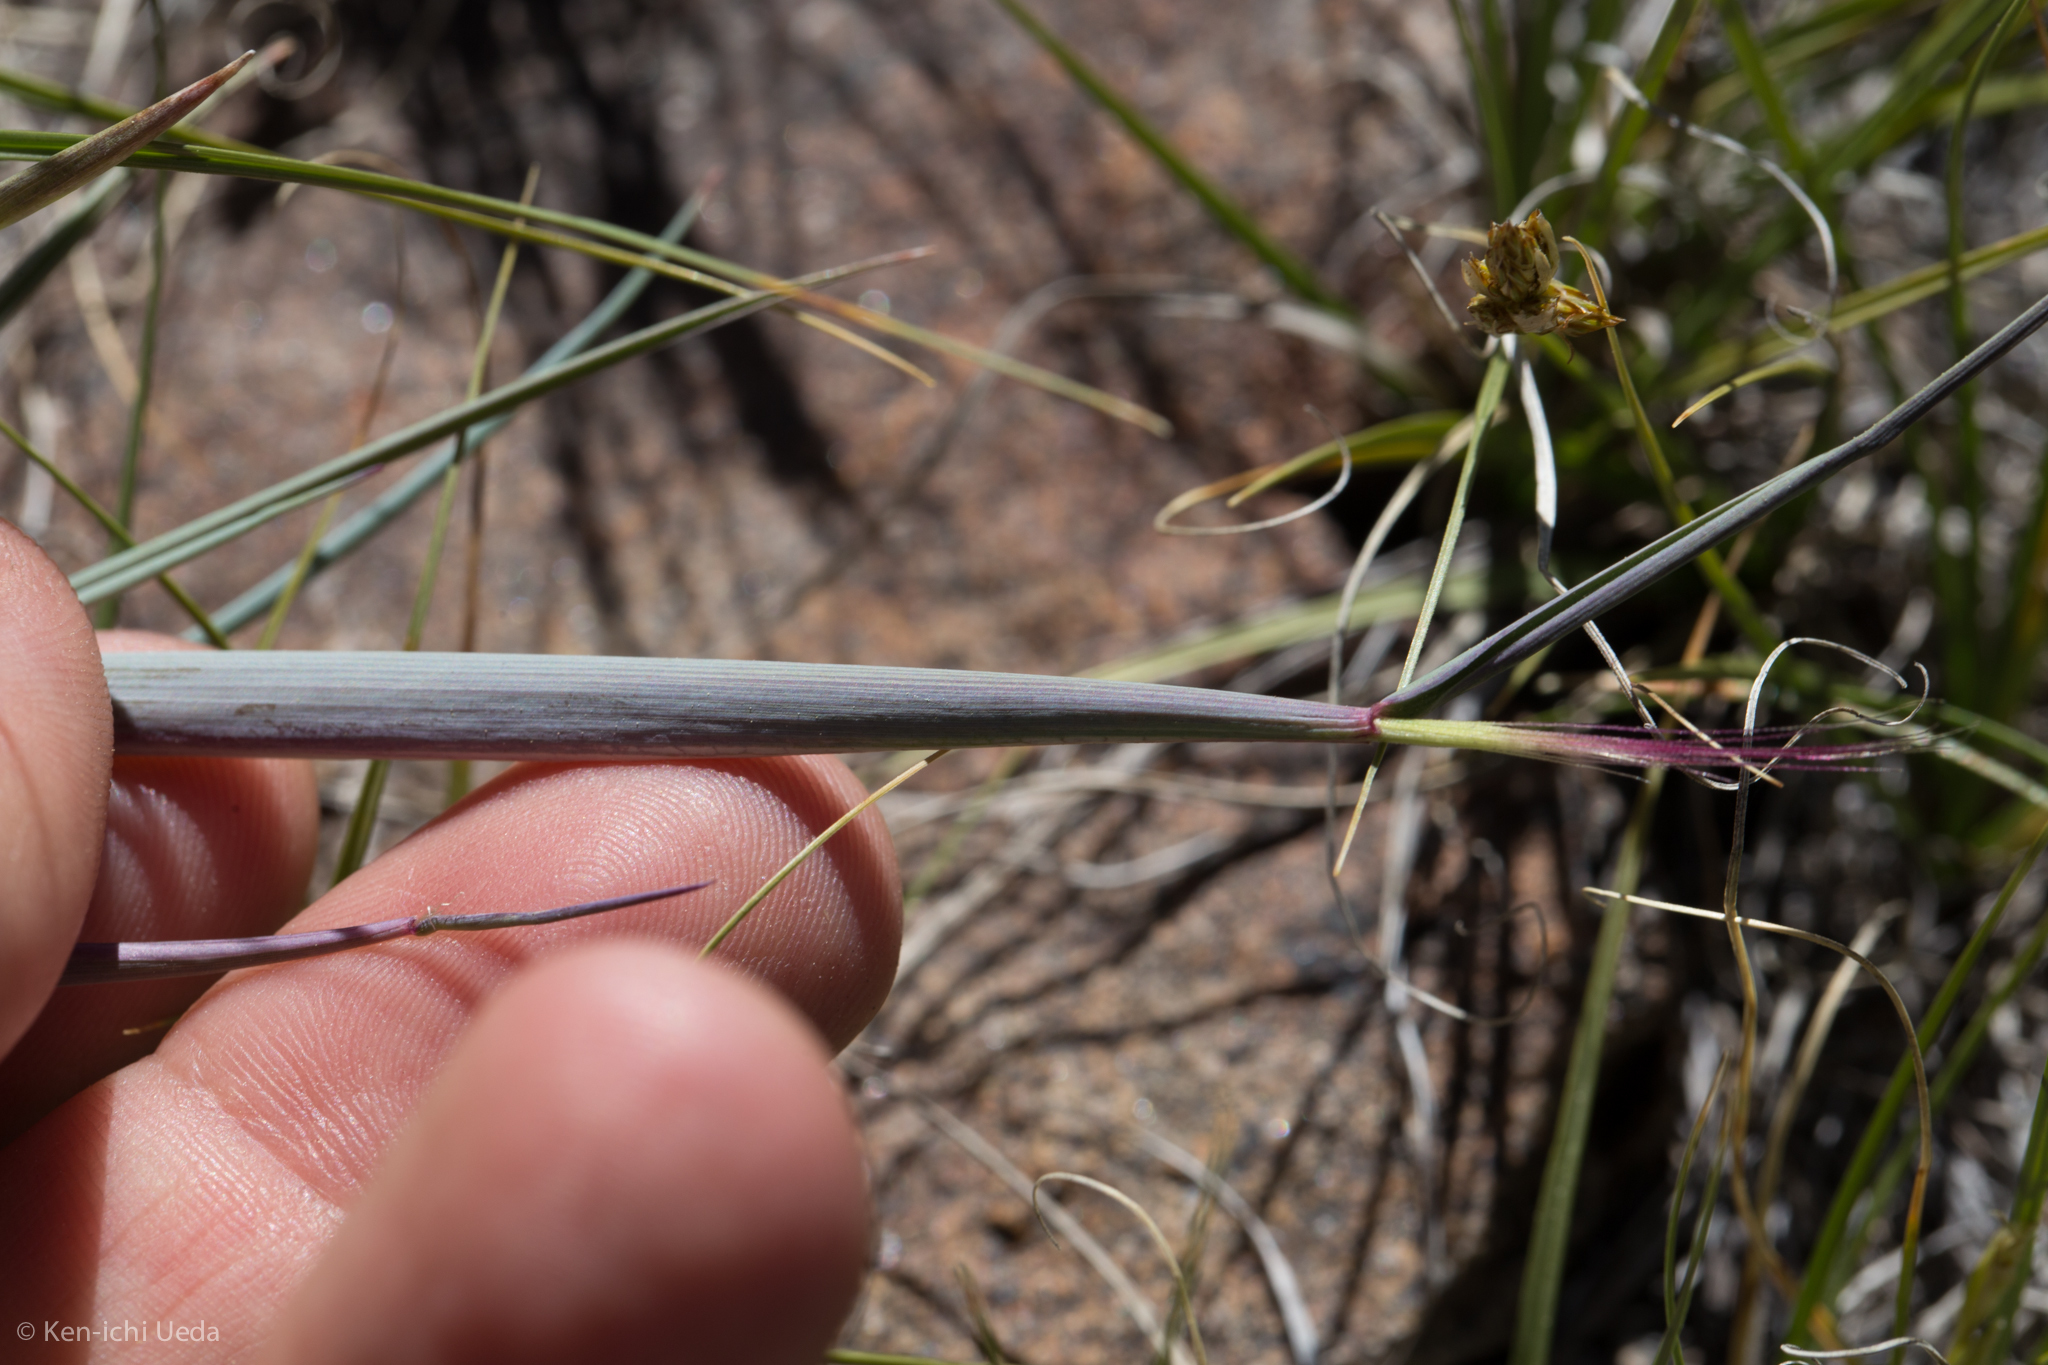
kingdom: Plantae
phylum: Tracheophyta
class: Liliopsida
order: Poales
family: Poaceae
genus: Elymus
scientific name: Elymus elymoides
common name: Bottlebrush squirreltail
